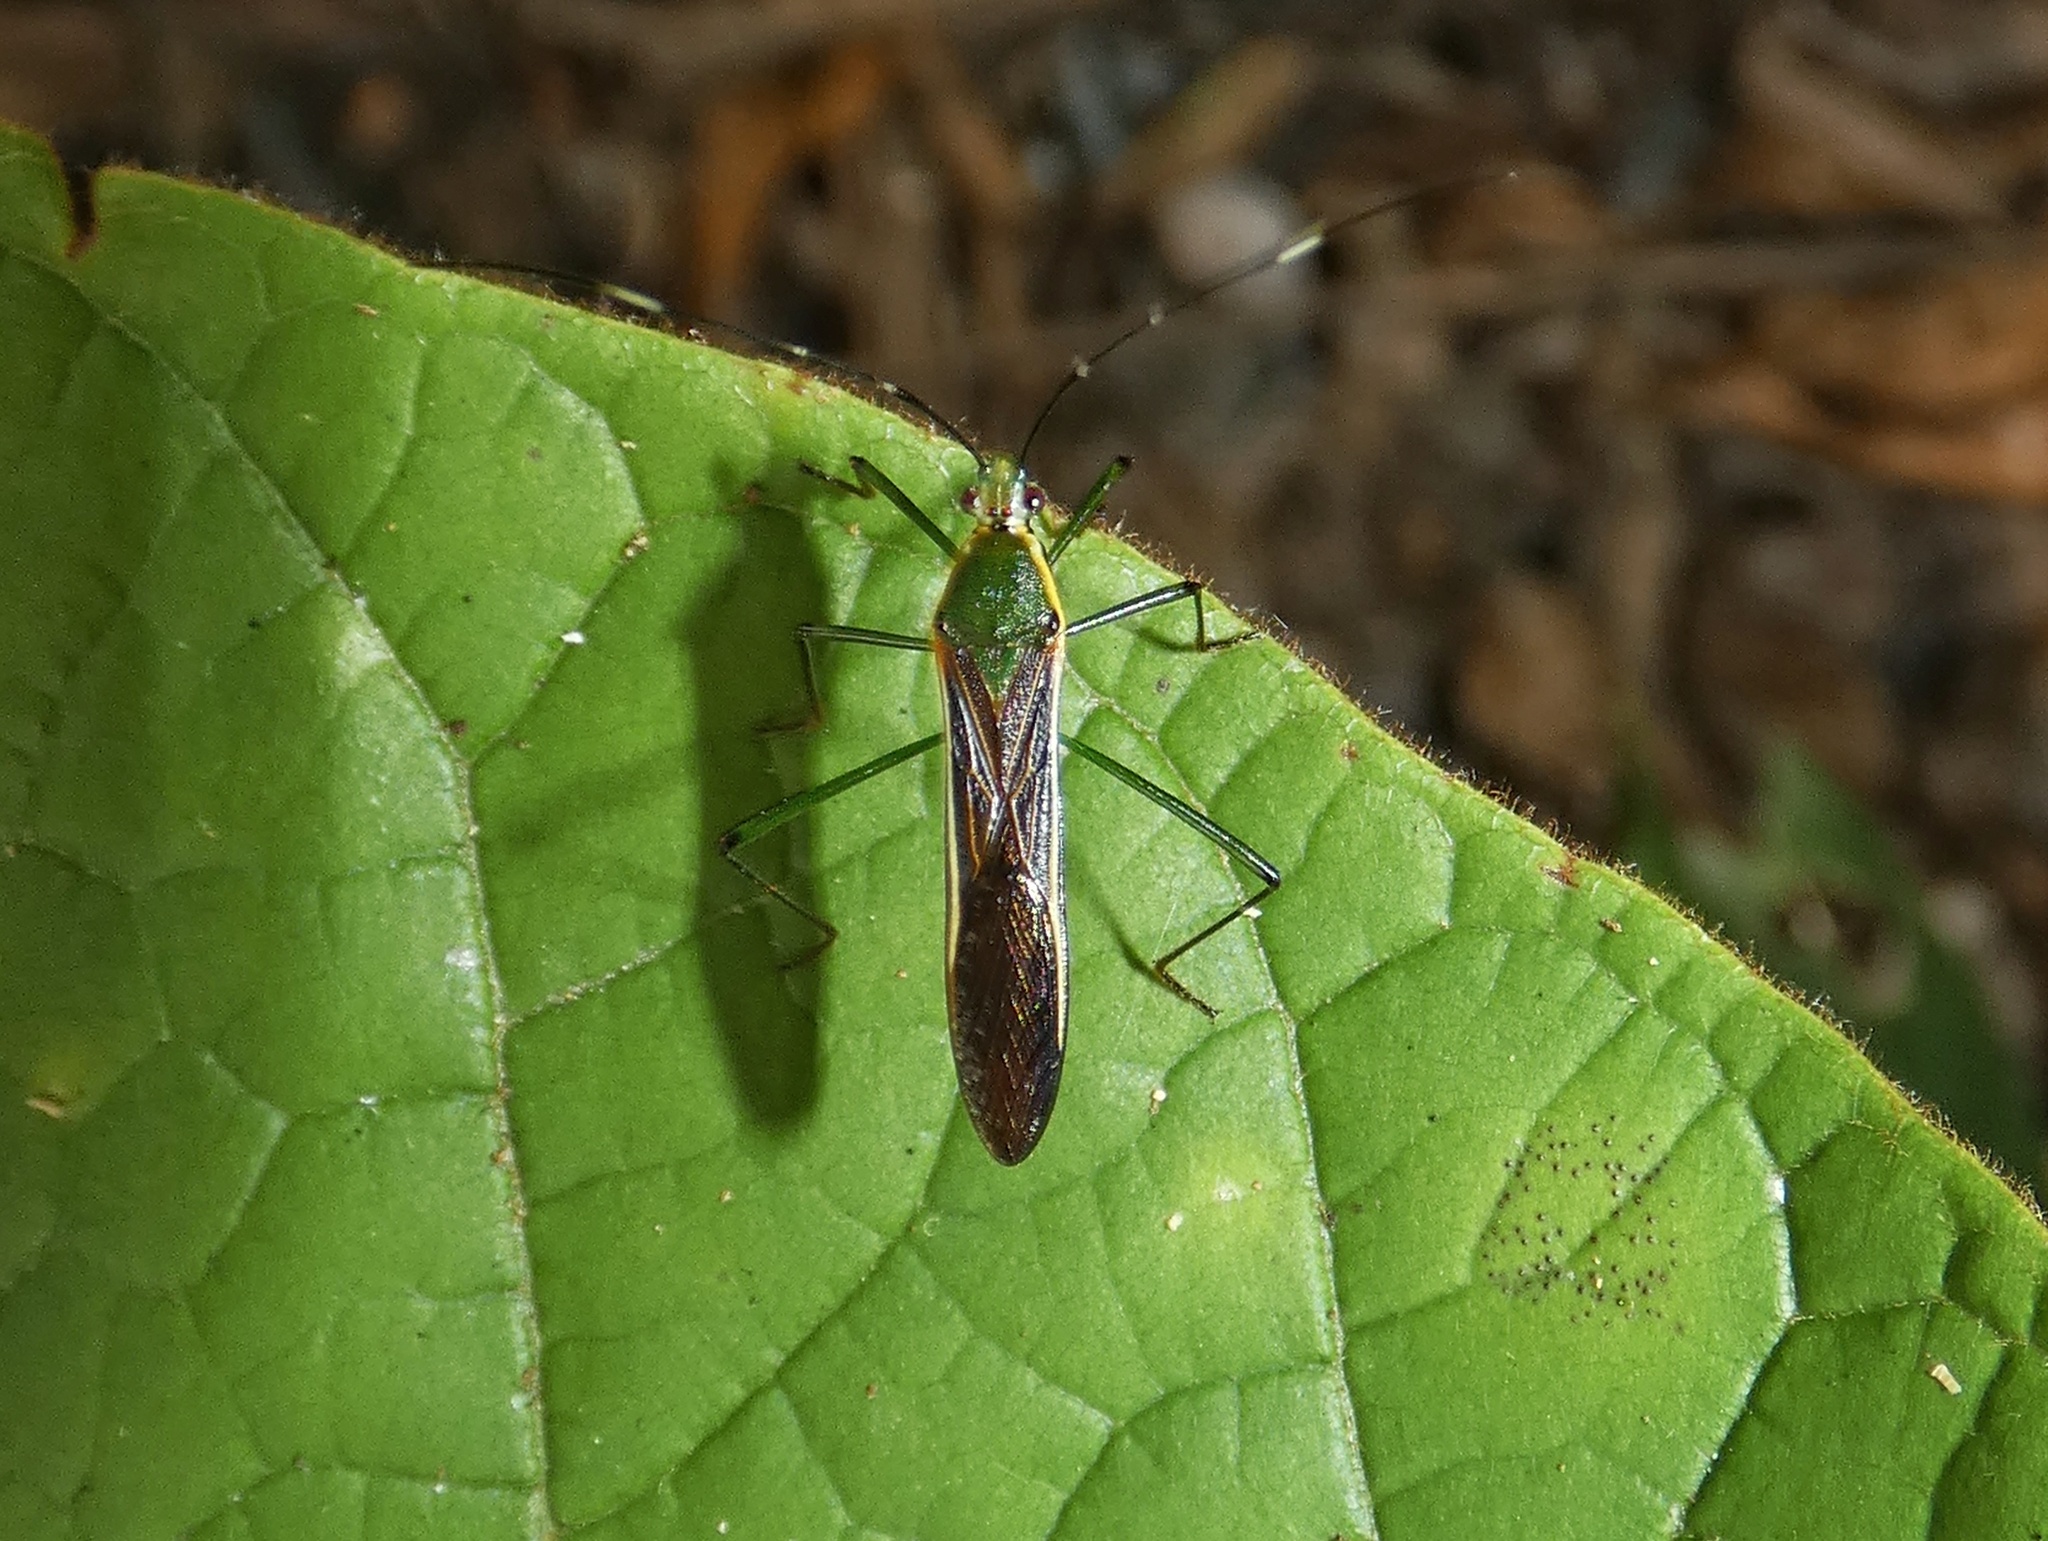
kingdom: Animalia
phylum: Arthropoda
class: Insecta
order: Hemiptera
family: Alydidae
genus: Lyrnessus
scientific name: Lyrnessus geniculatus
